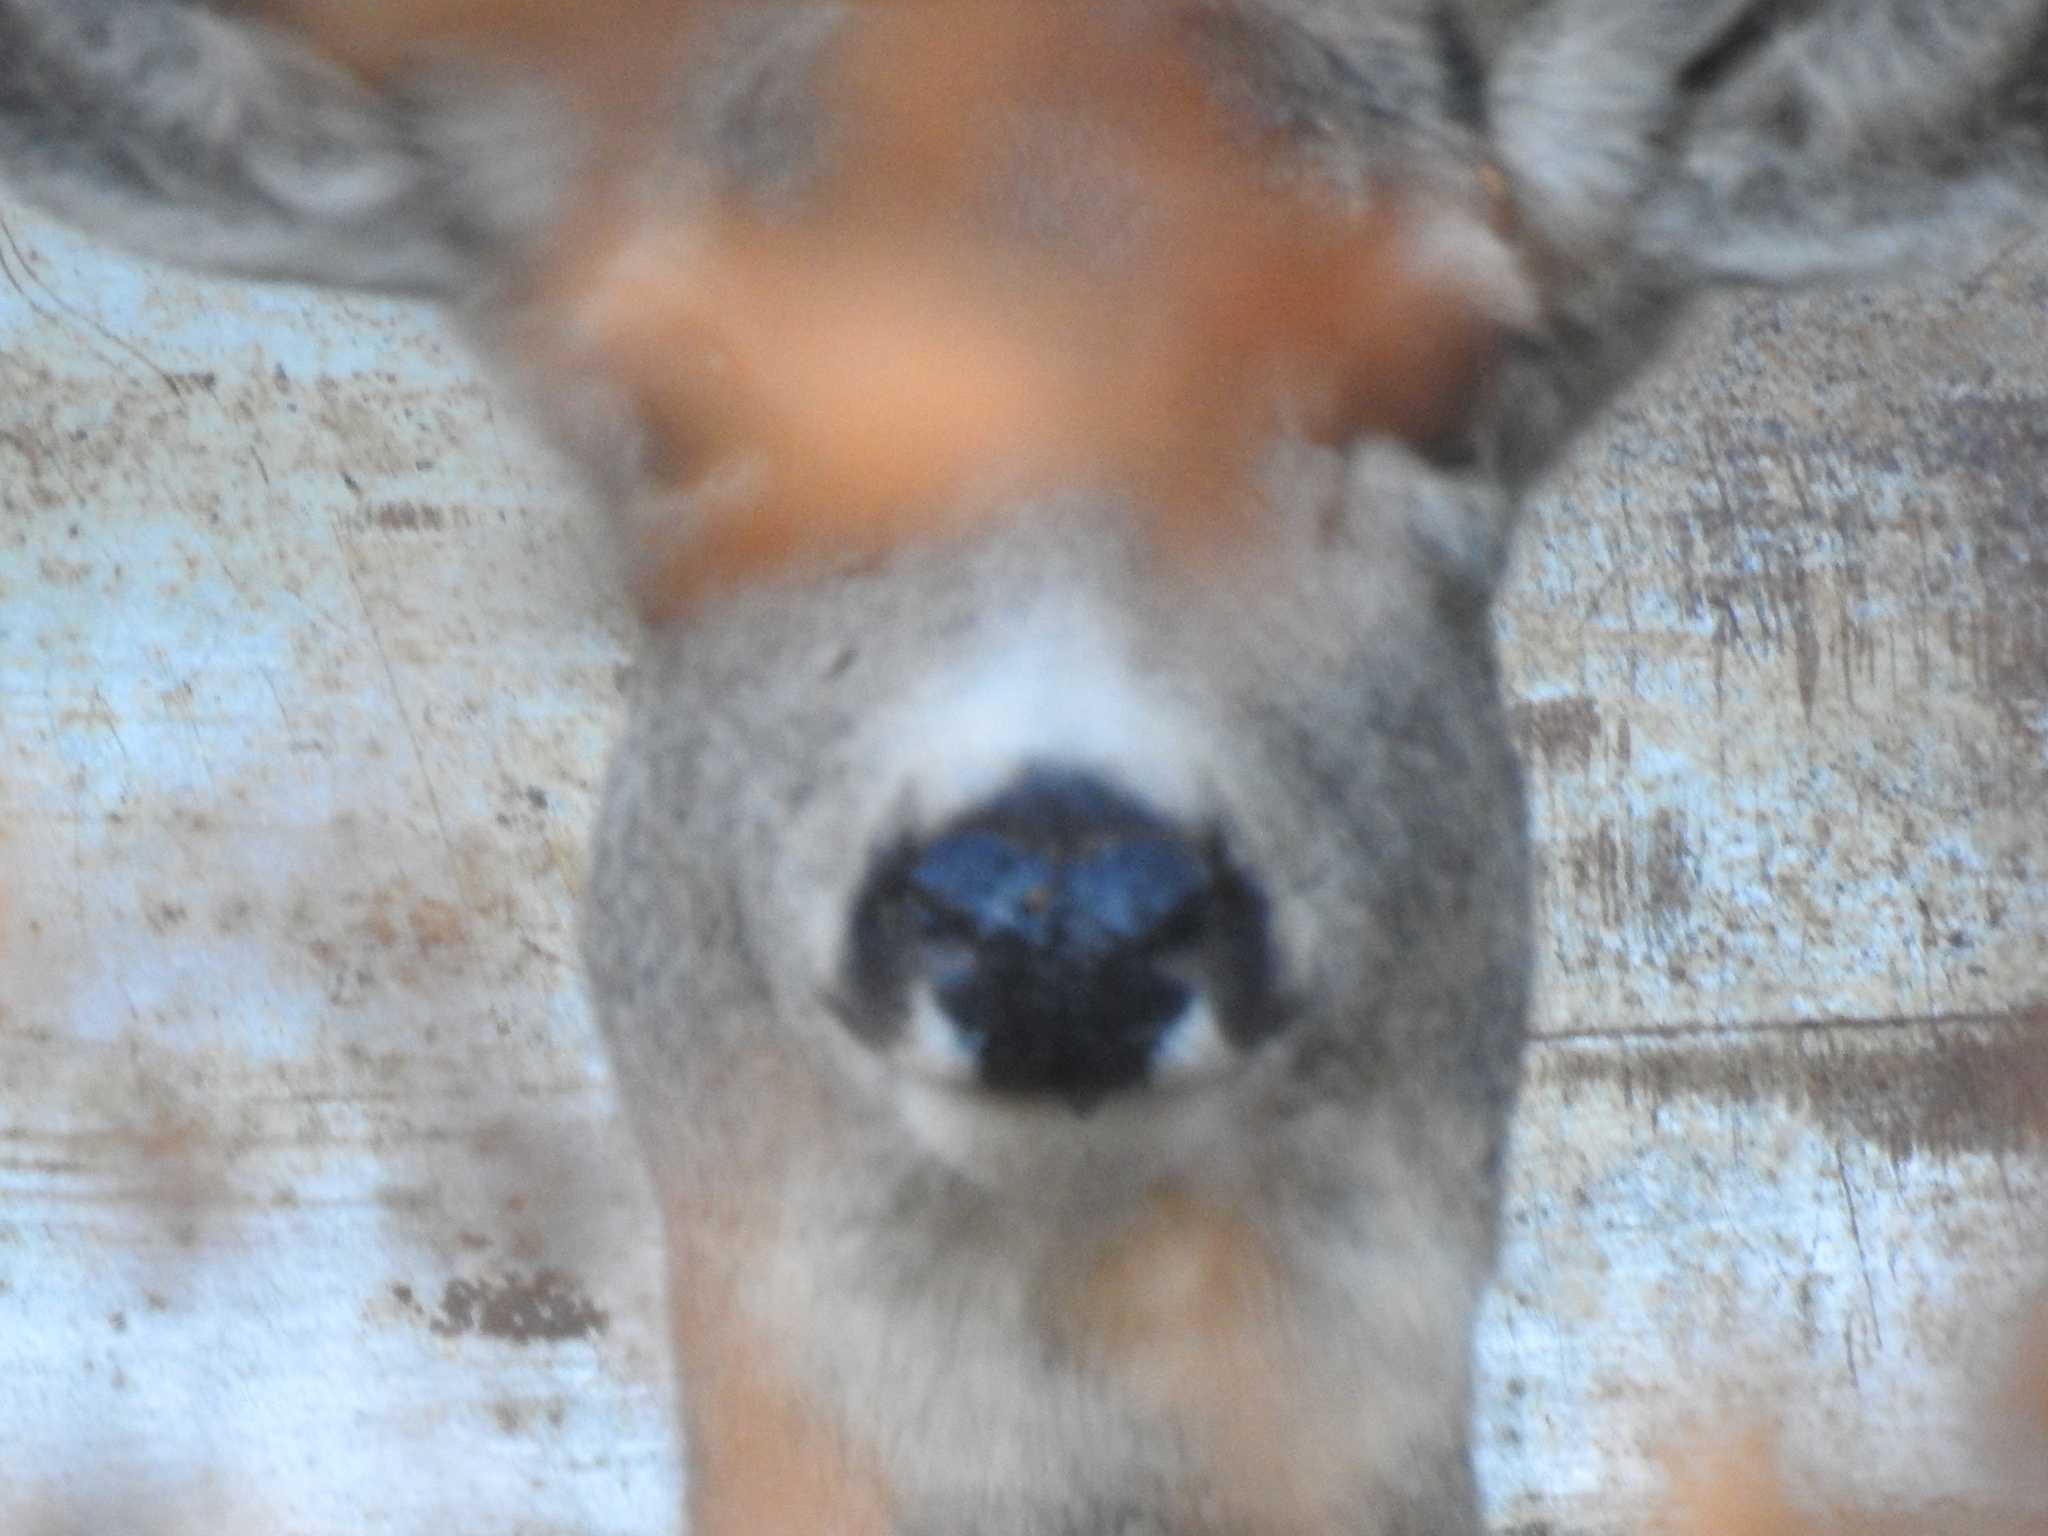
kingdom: Animalia
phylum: Chordata
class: Mammalia
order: Artiodactyla
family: Cervidae
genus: Odocoileus
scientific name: Odocoileus hemionus
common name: Mule deer
